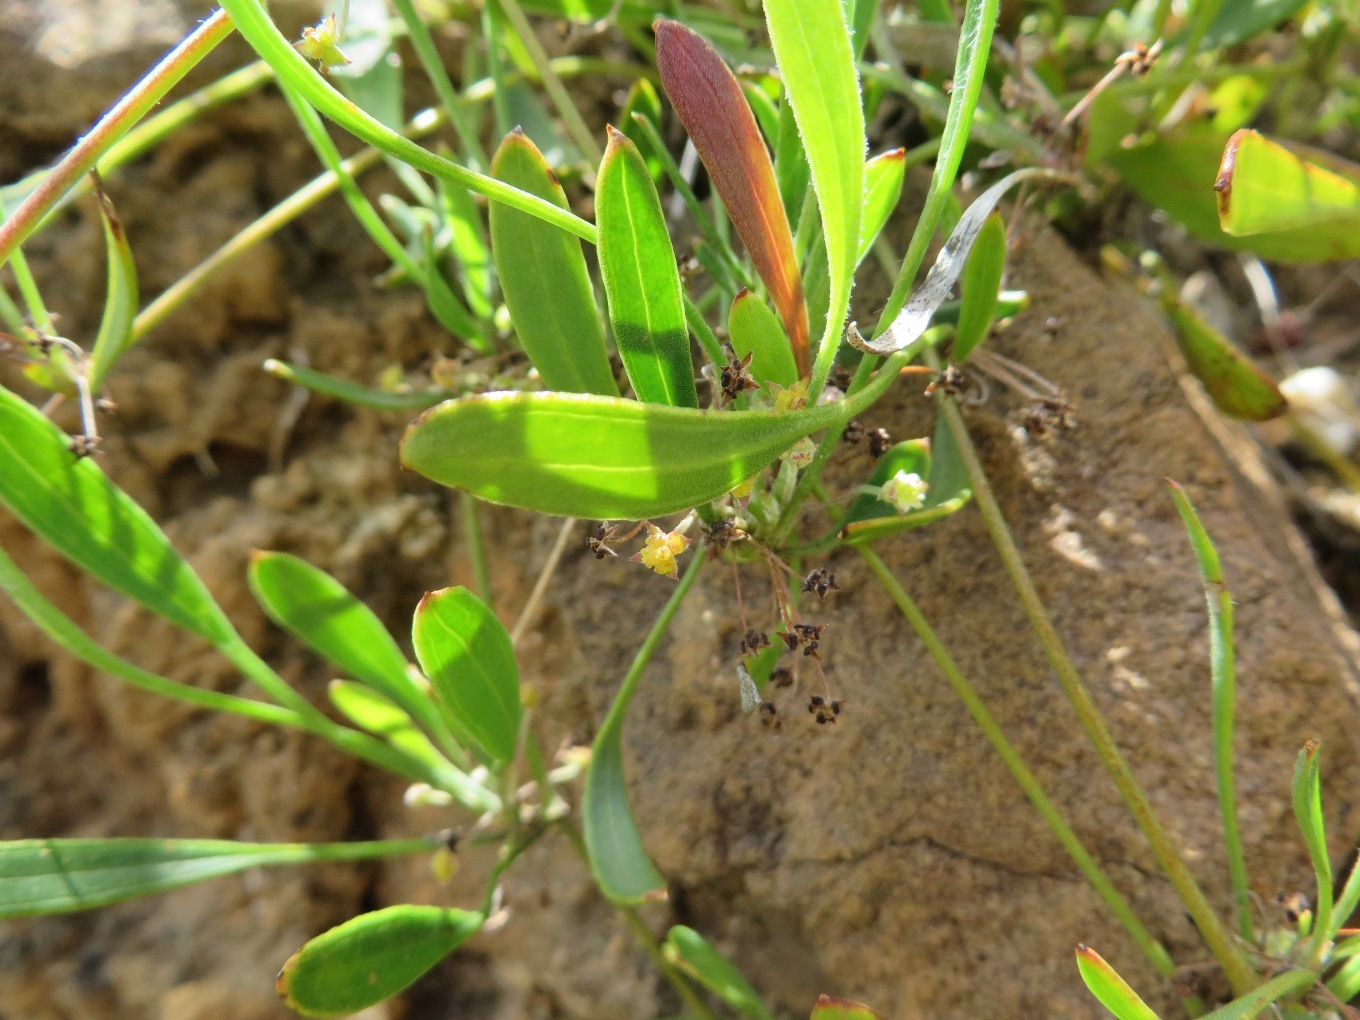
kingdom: Plantae
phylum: Tracheophyta
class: Magnoliopsida
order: Apiales
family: Apiaceae
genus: Centella
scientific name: Centella glabrata
